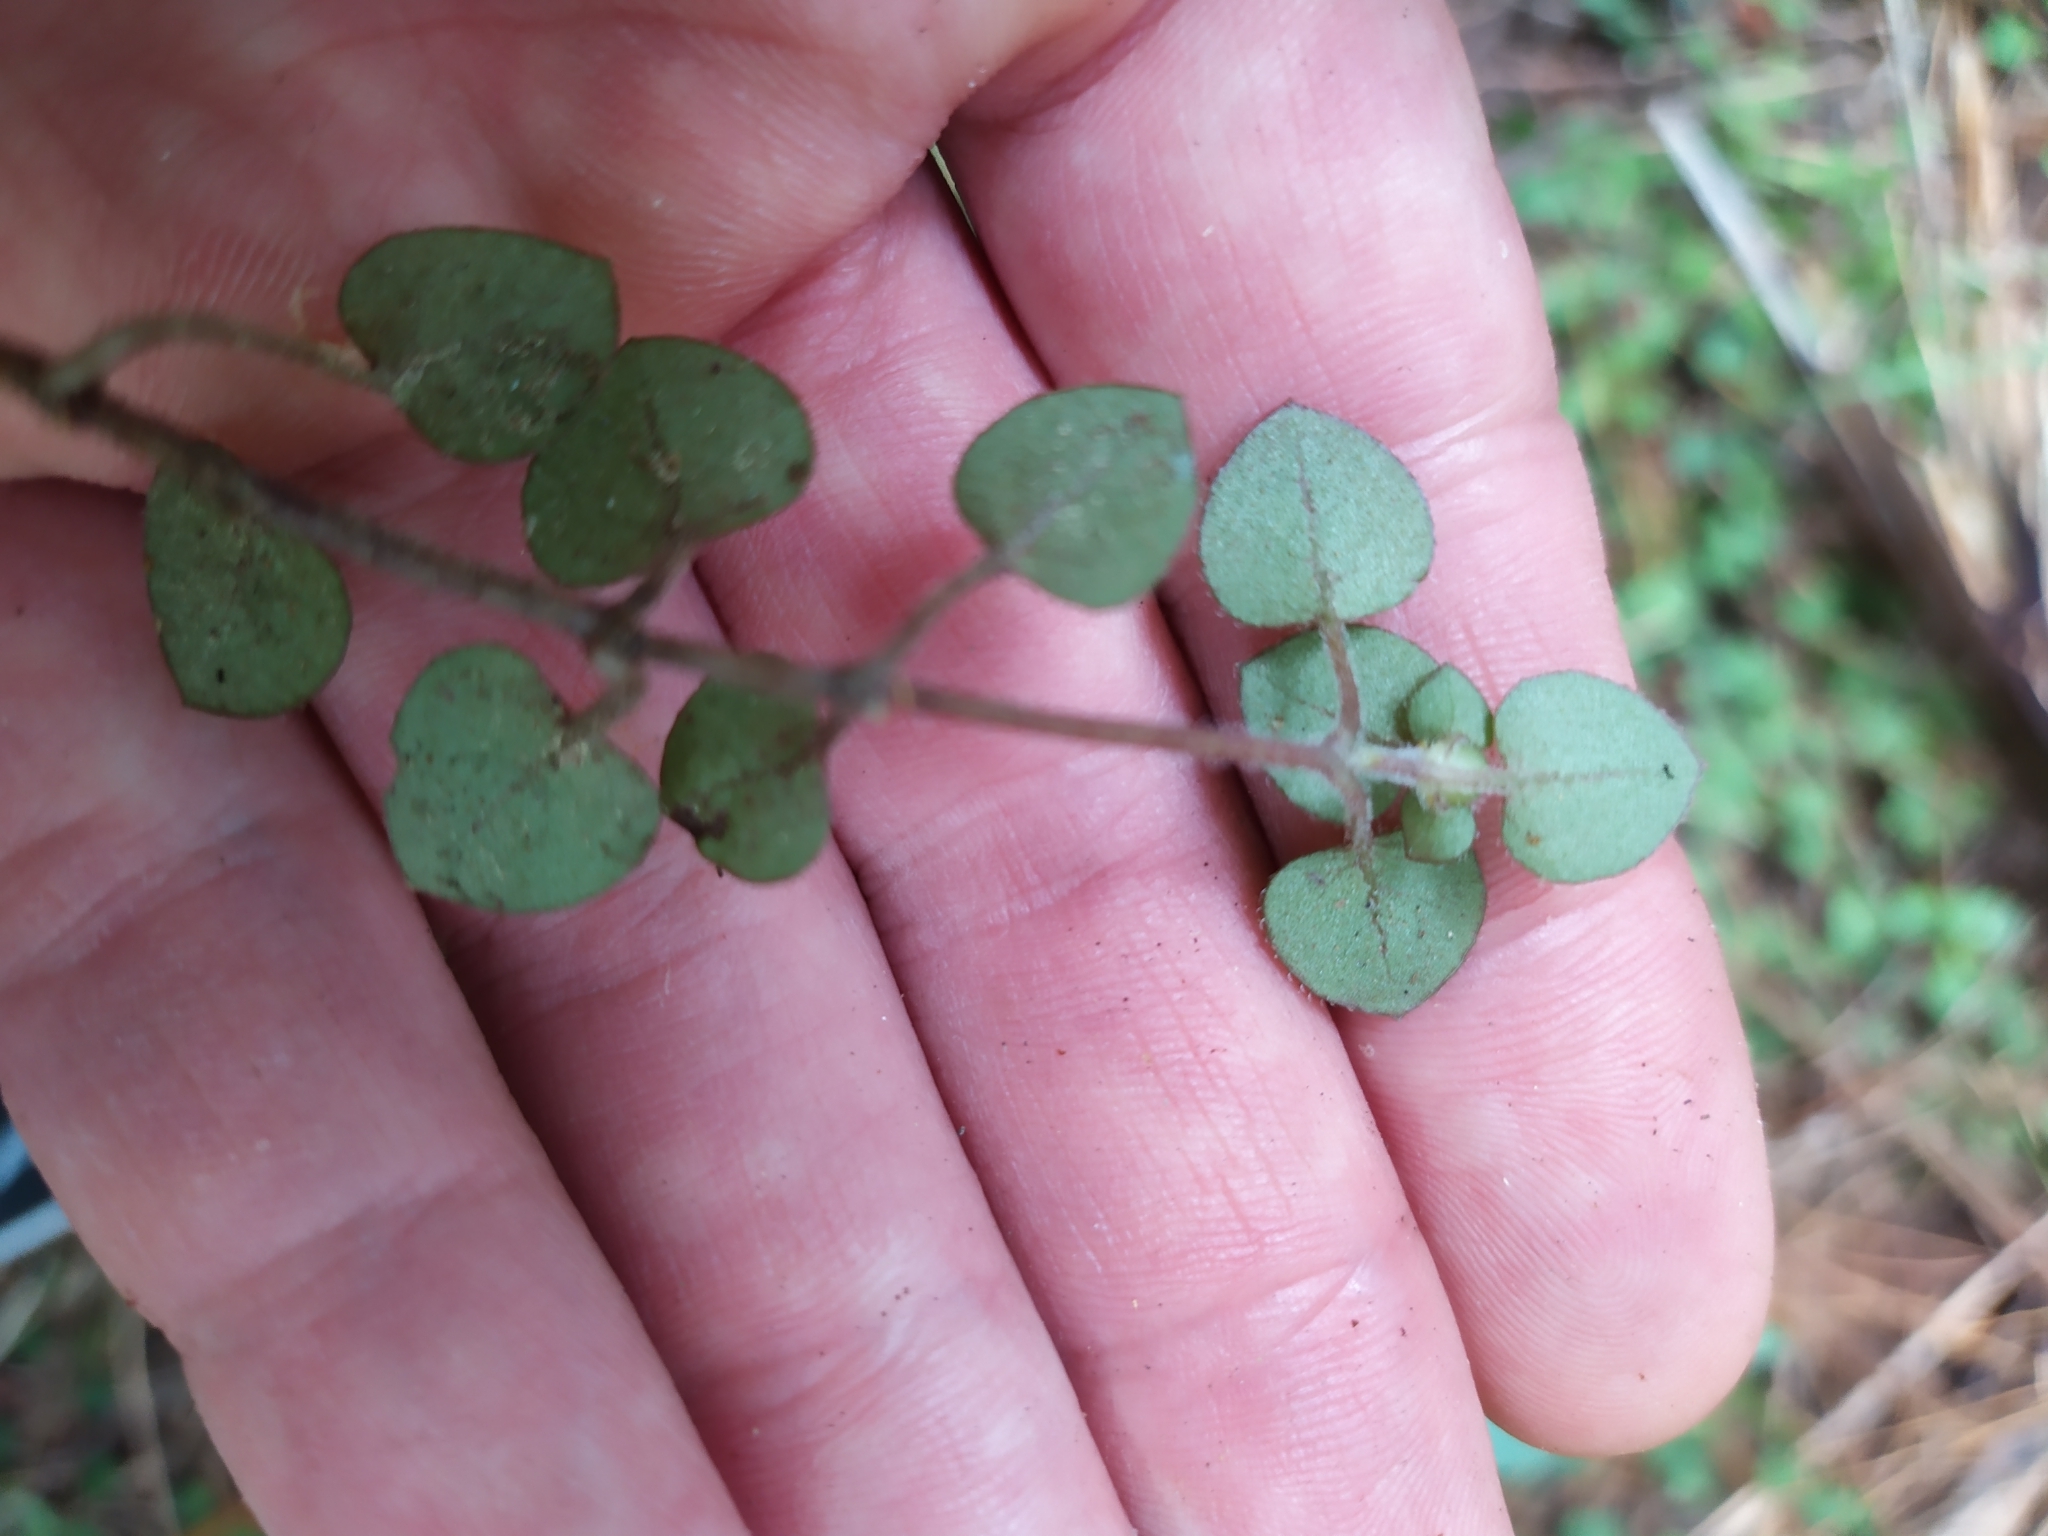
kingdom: Plantae
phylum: Tracheophyta
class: Magnoliopsida
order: Gentianales
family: Rubiaceae
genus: Nertera
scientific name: Nertera dichondrifolia
